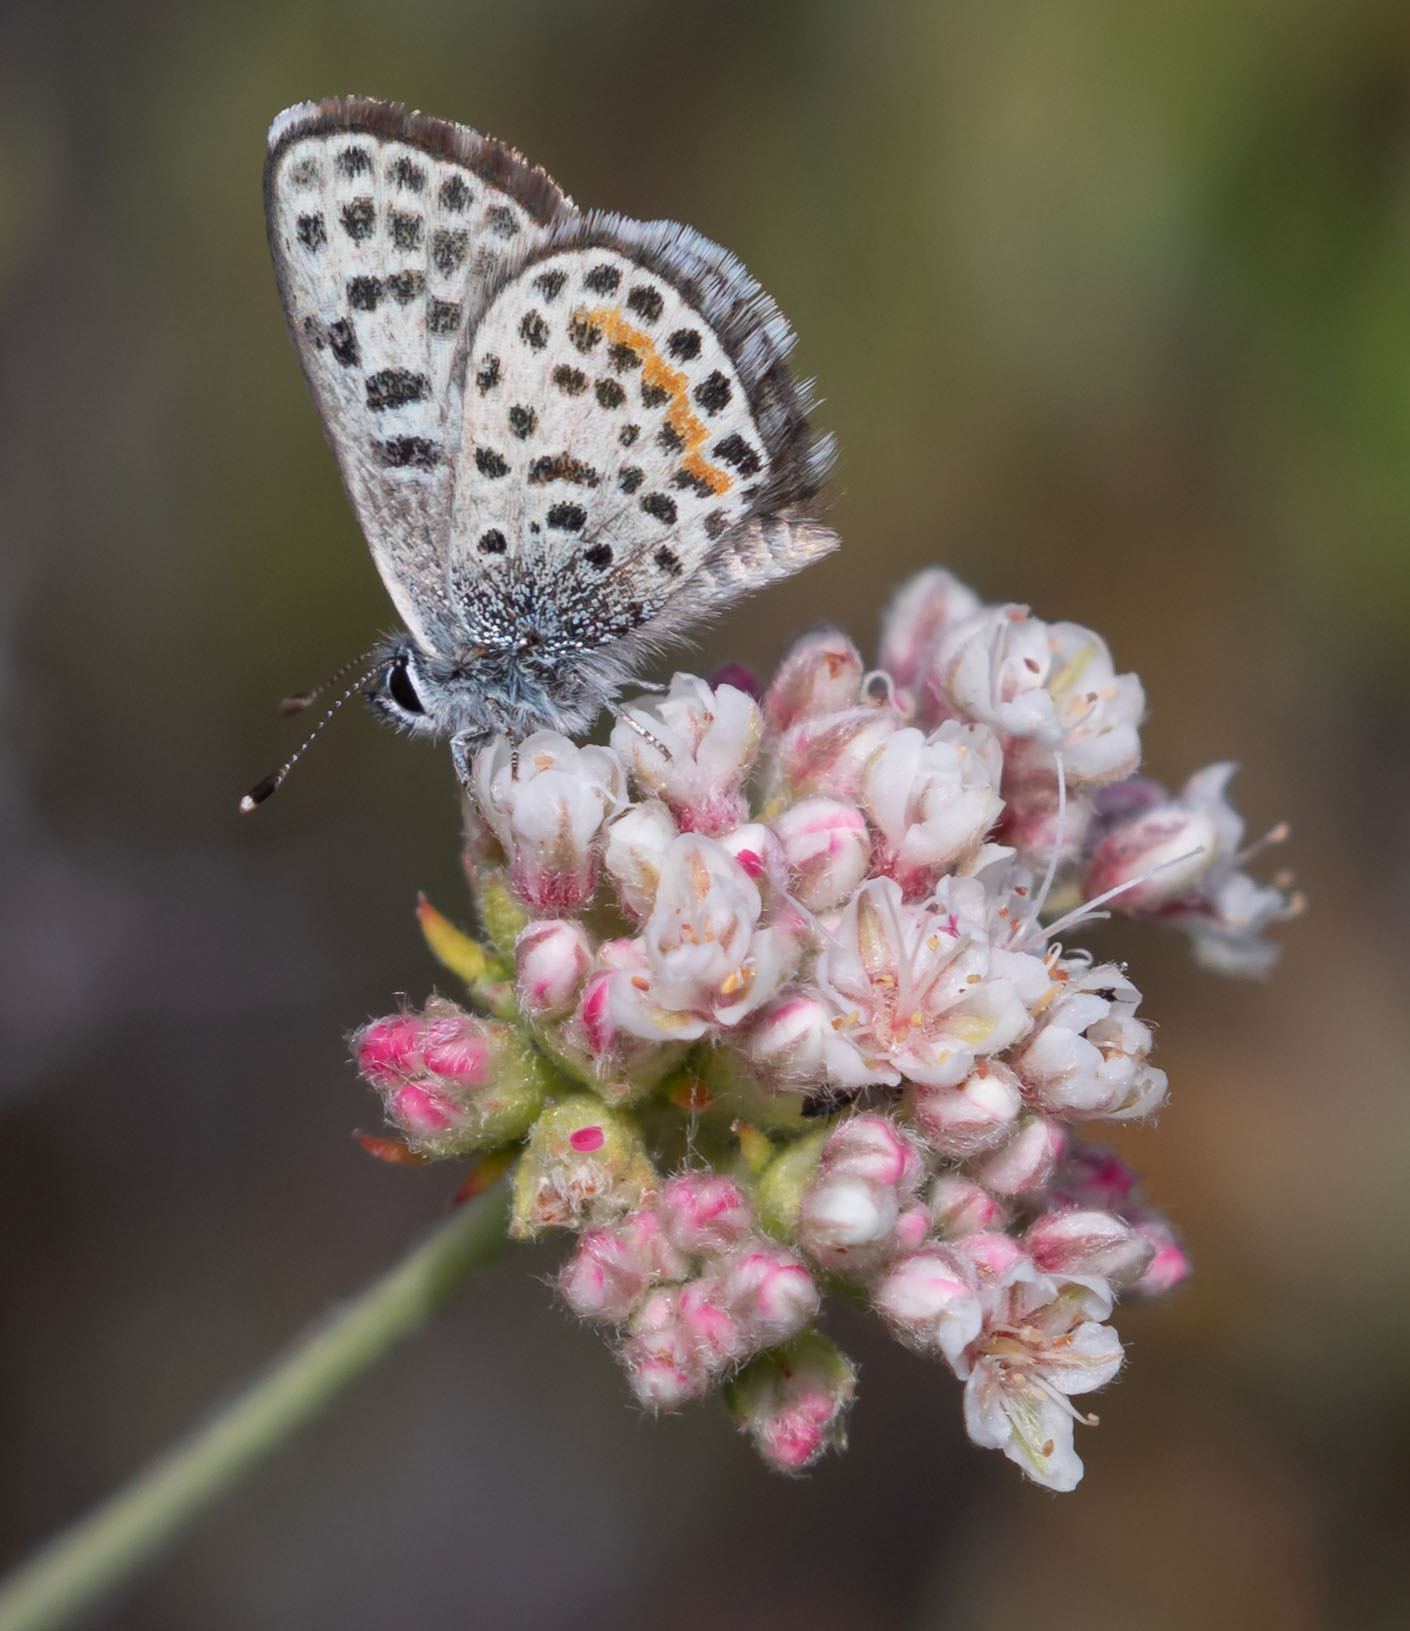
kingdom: Animalia
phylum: Arthropoda
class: Insecta
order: Lepidoptera
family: Lycaenidae
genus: Philotes
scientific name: Philotes bernardino
